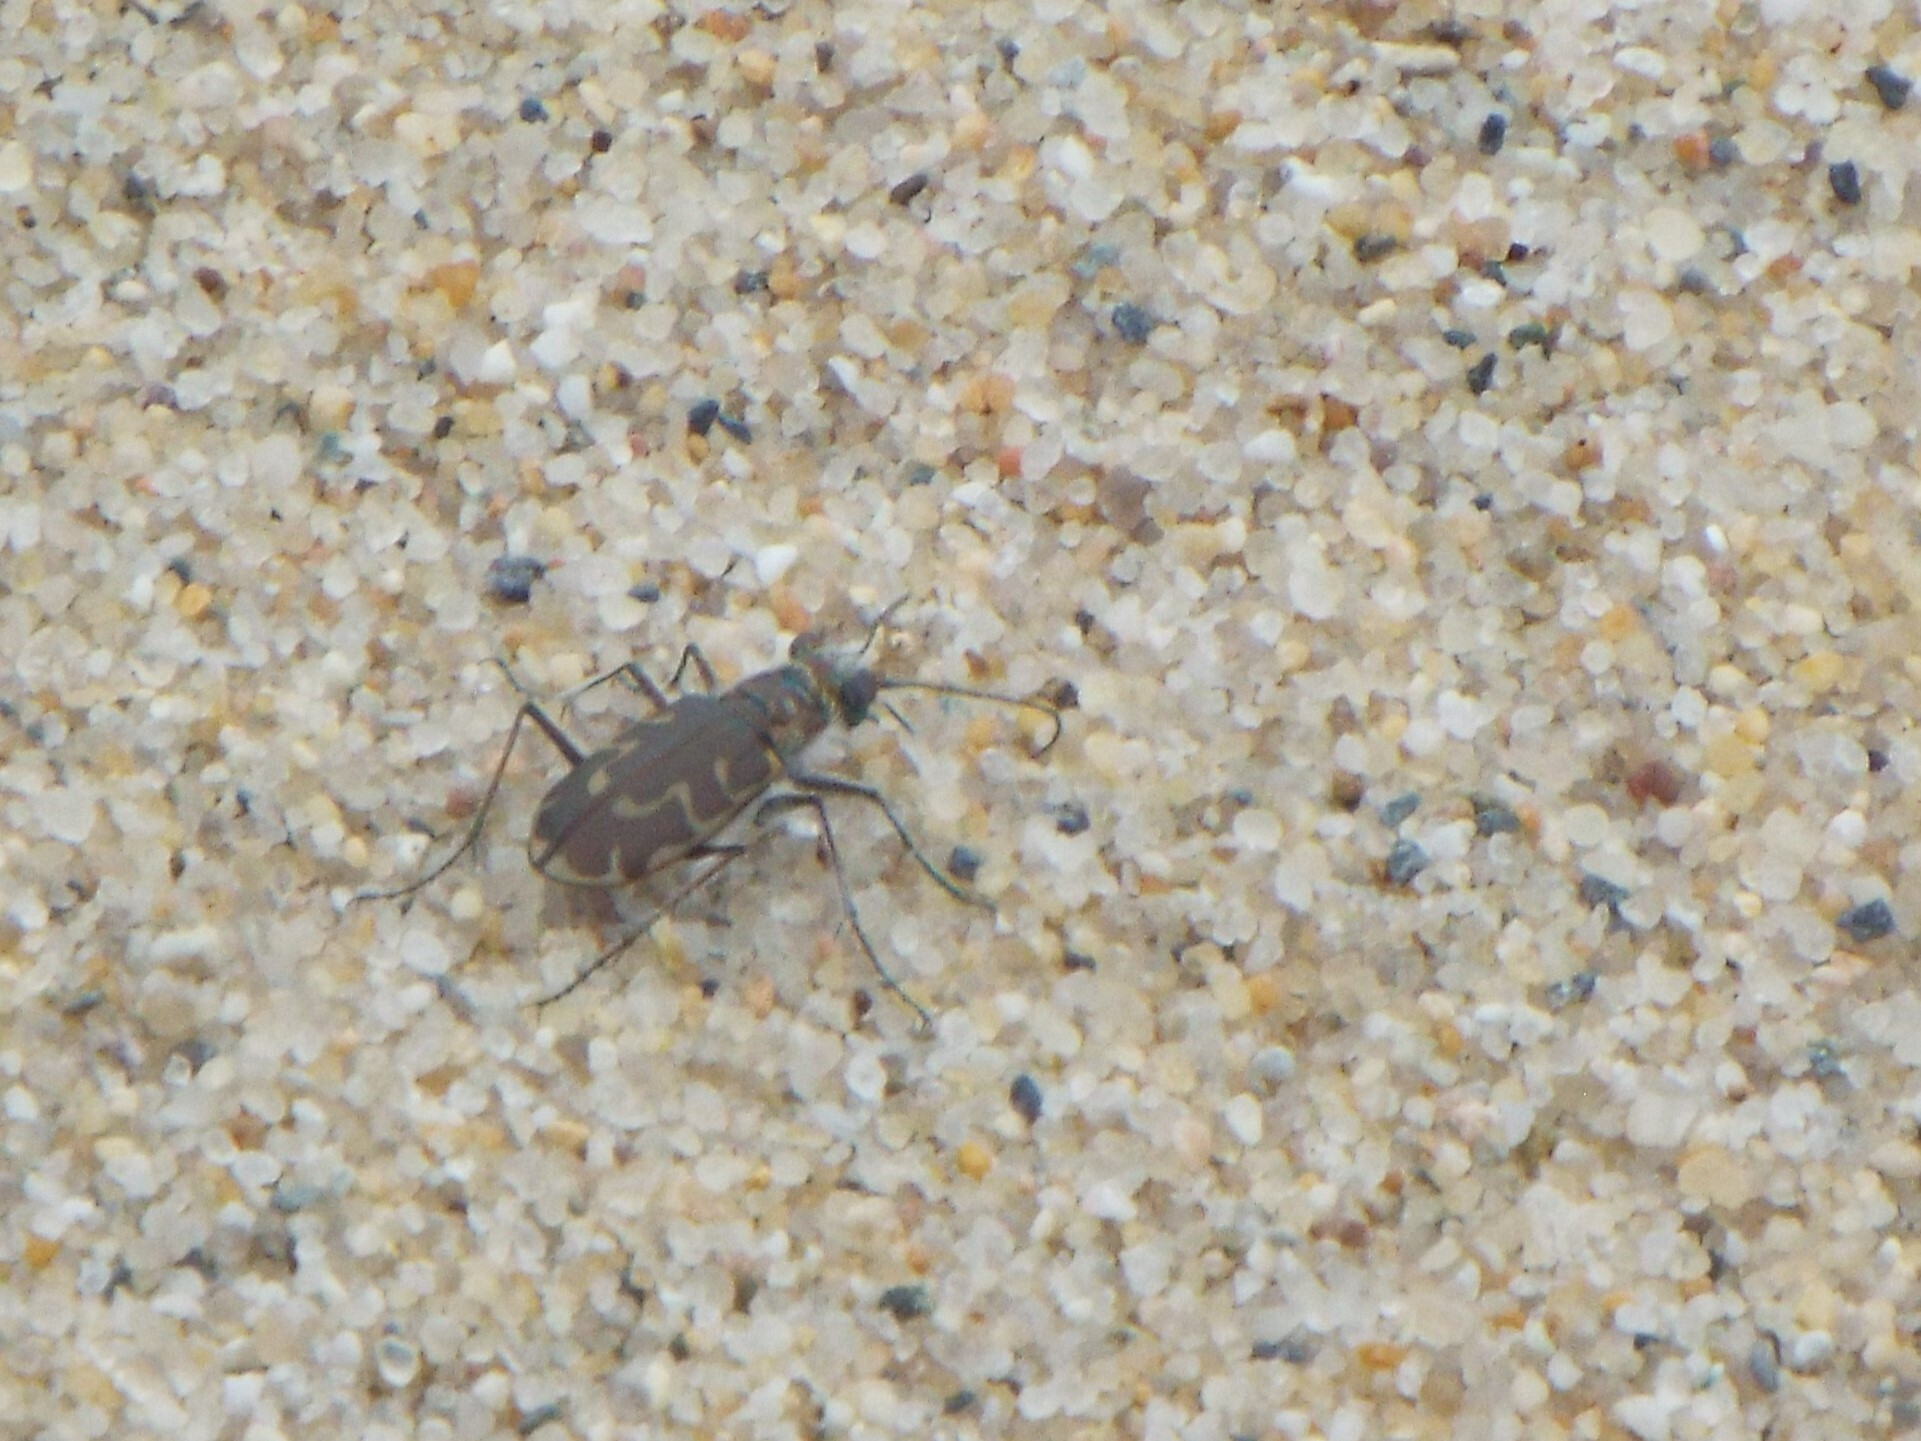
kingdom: Animalia
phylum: Arthropoda
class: Insecta
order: Coleoptera
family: Carabidae
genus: Cicindela
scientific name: Cicindela hirticollis
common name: Hairy-necked tiger beetle
